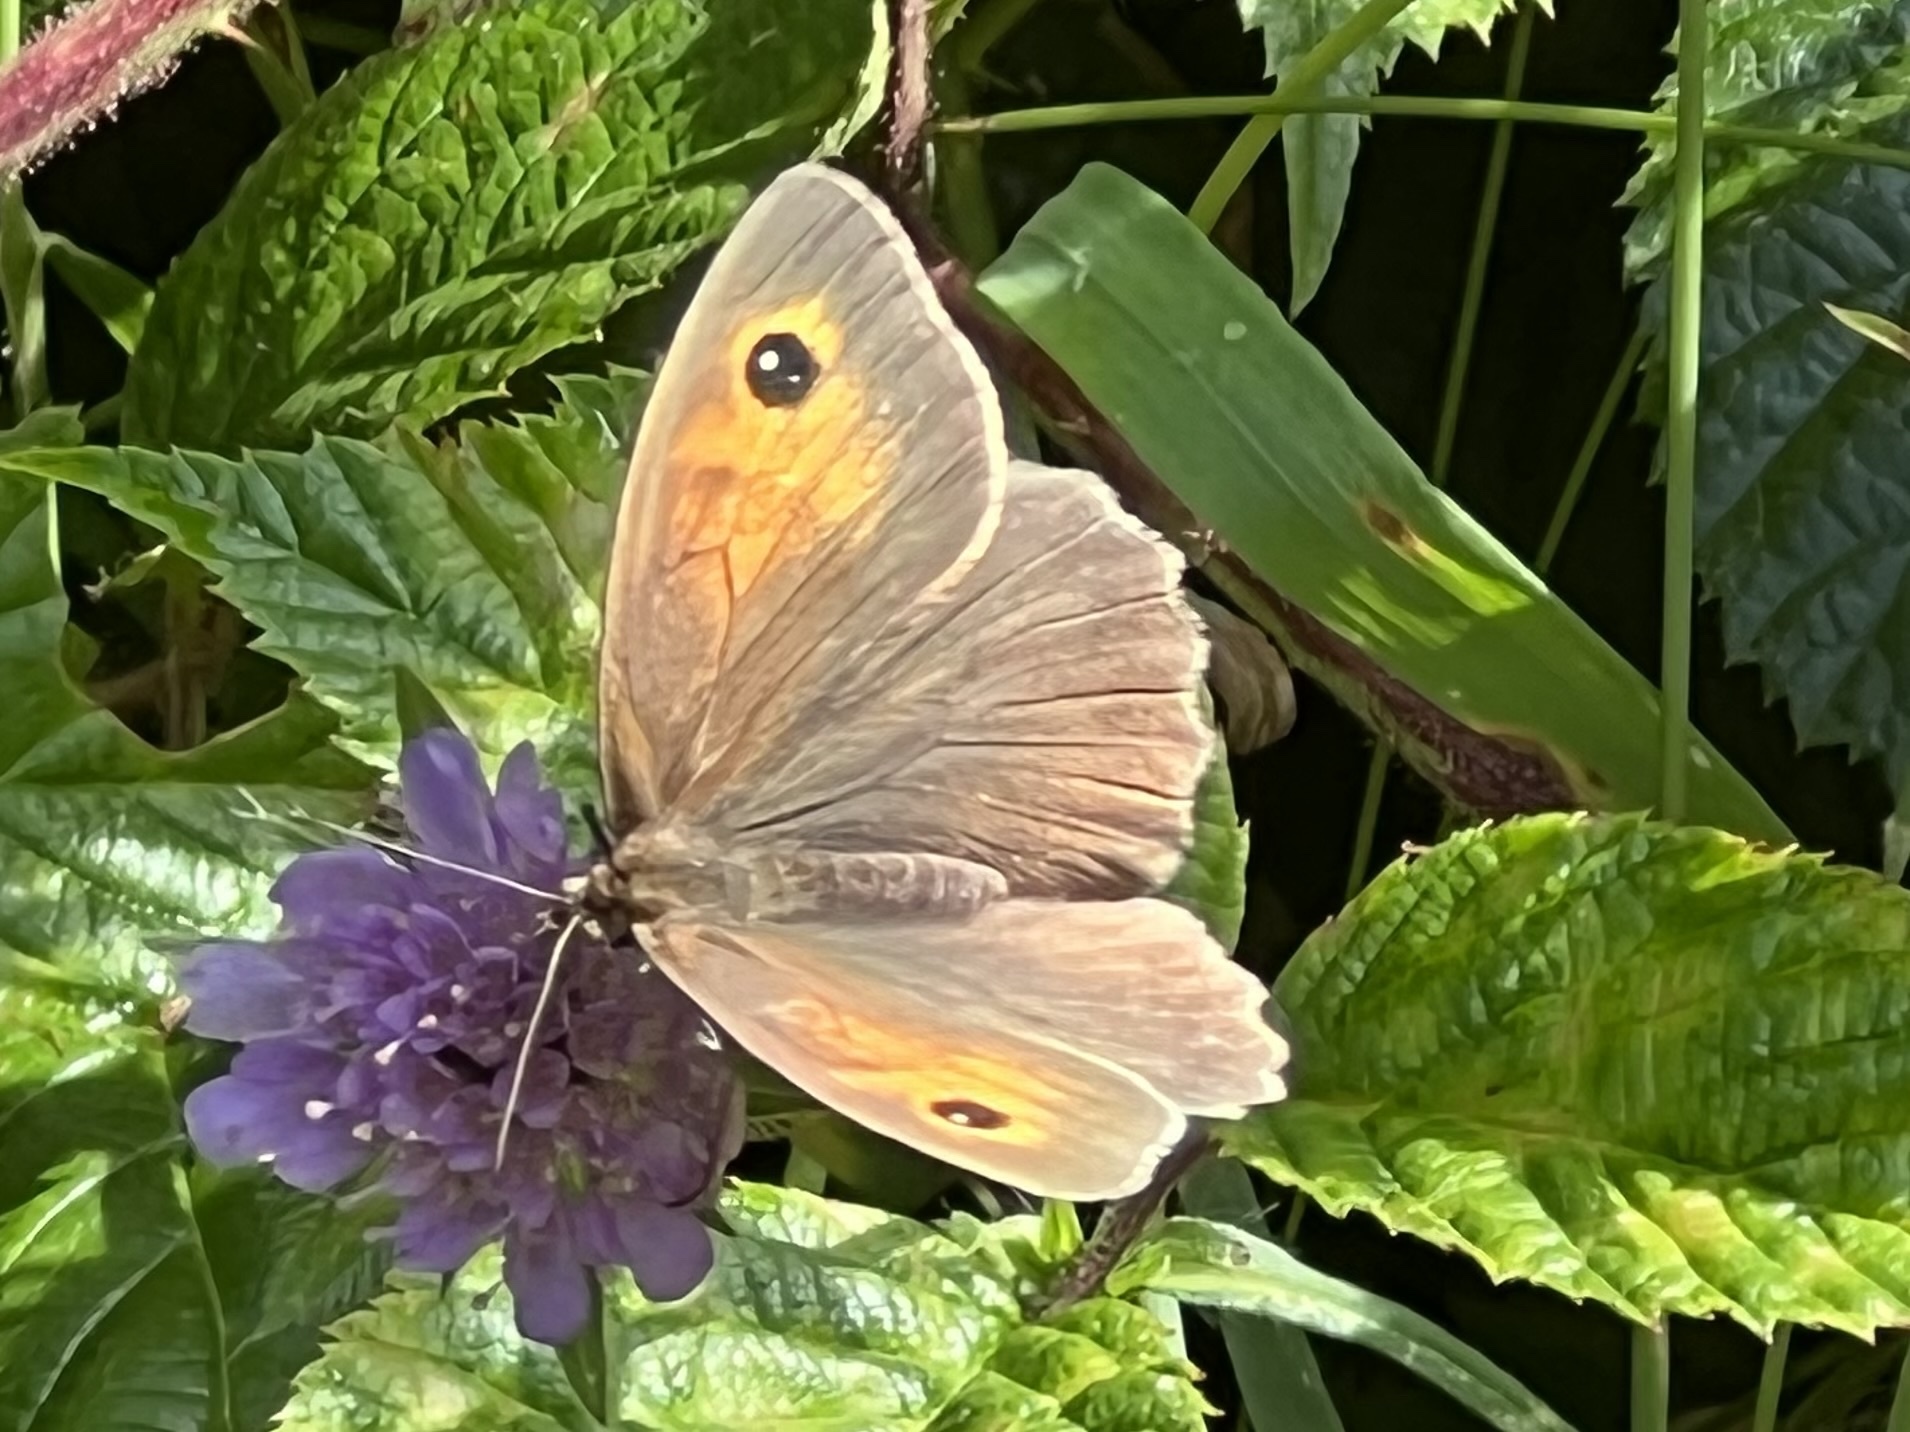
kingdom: Animalia
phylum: Arthropoda
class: Insecta
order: Lepidoptera
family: Nymphalidae
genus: Maniola
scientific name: Maniola jurtina
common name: Meadow brown
